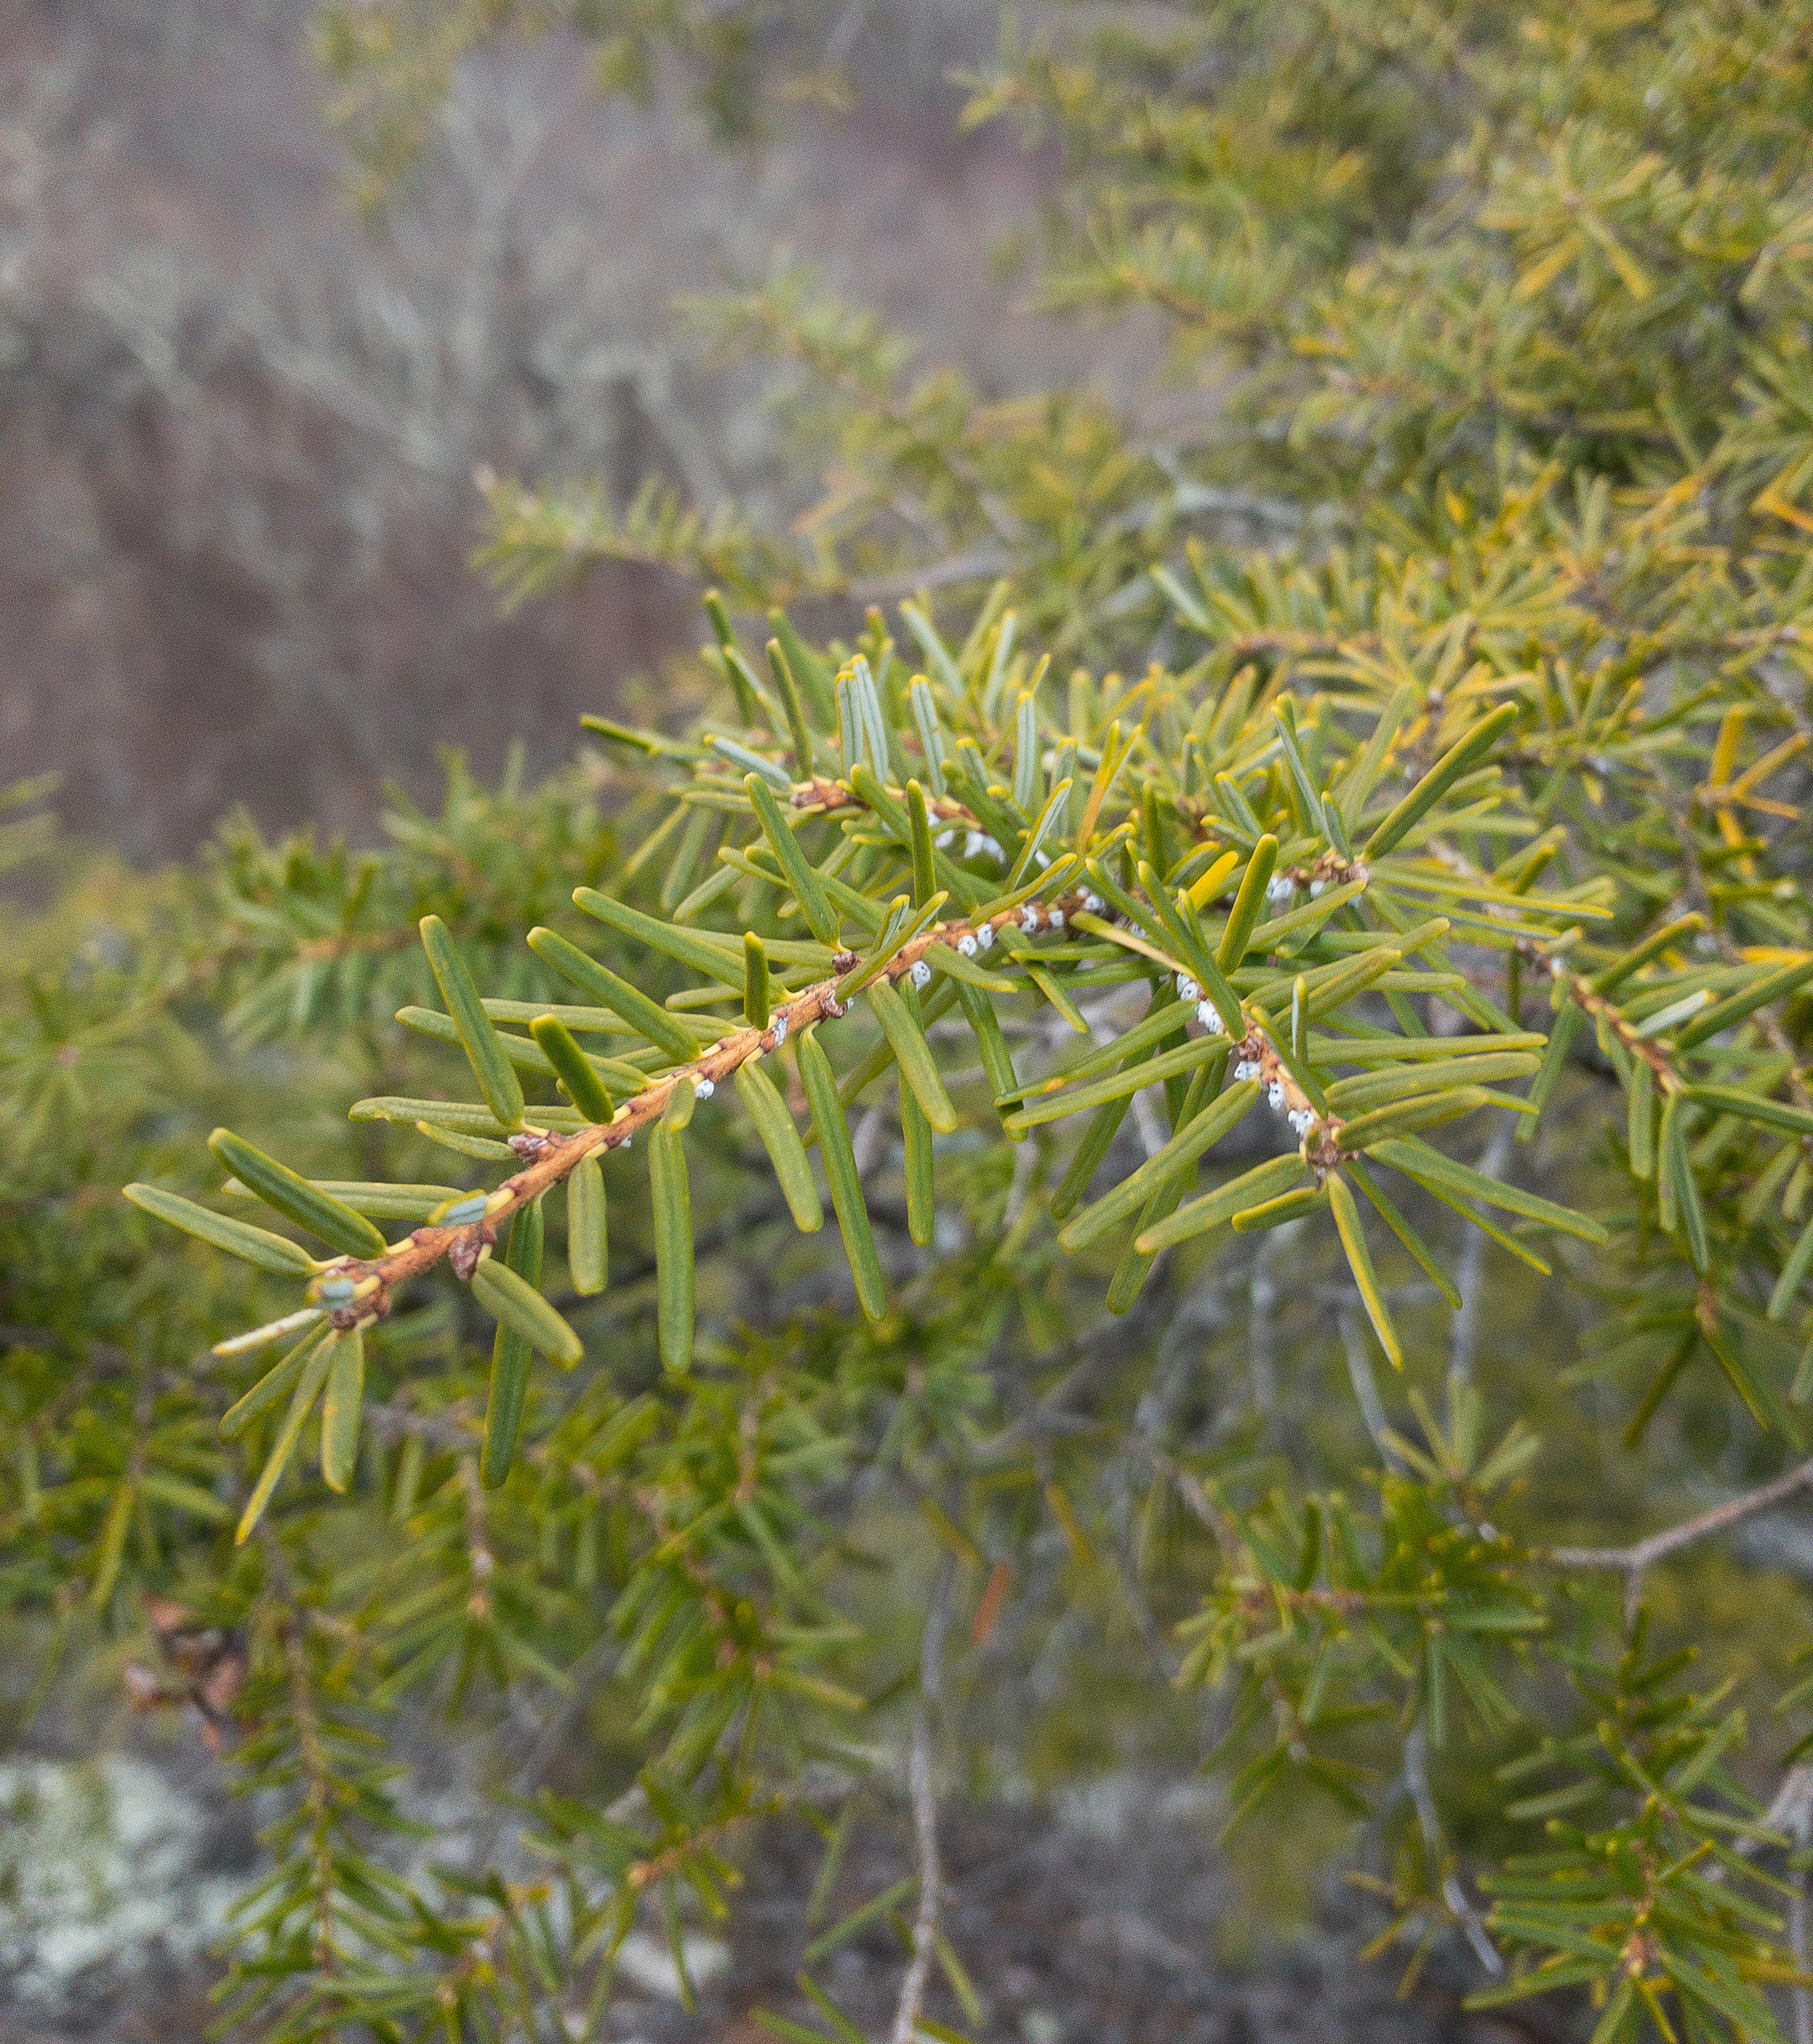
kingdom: Plantae
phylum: Tracheophyta
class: Pinopsida
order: Pinales
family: Pinaceae
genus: Tsuga
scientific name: Tsuga caroliniana
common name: Carolina hemlock
